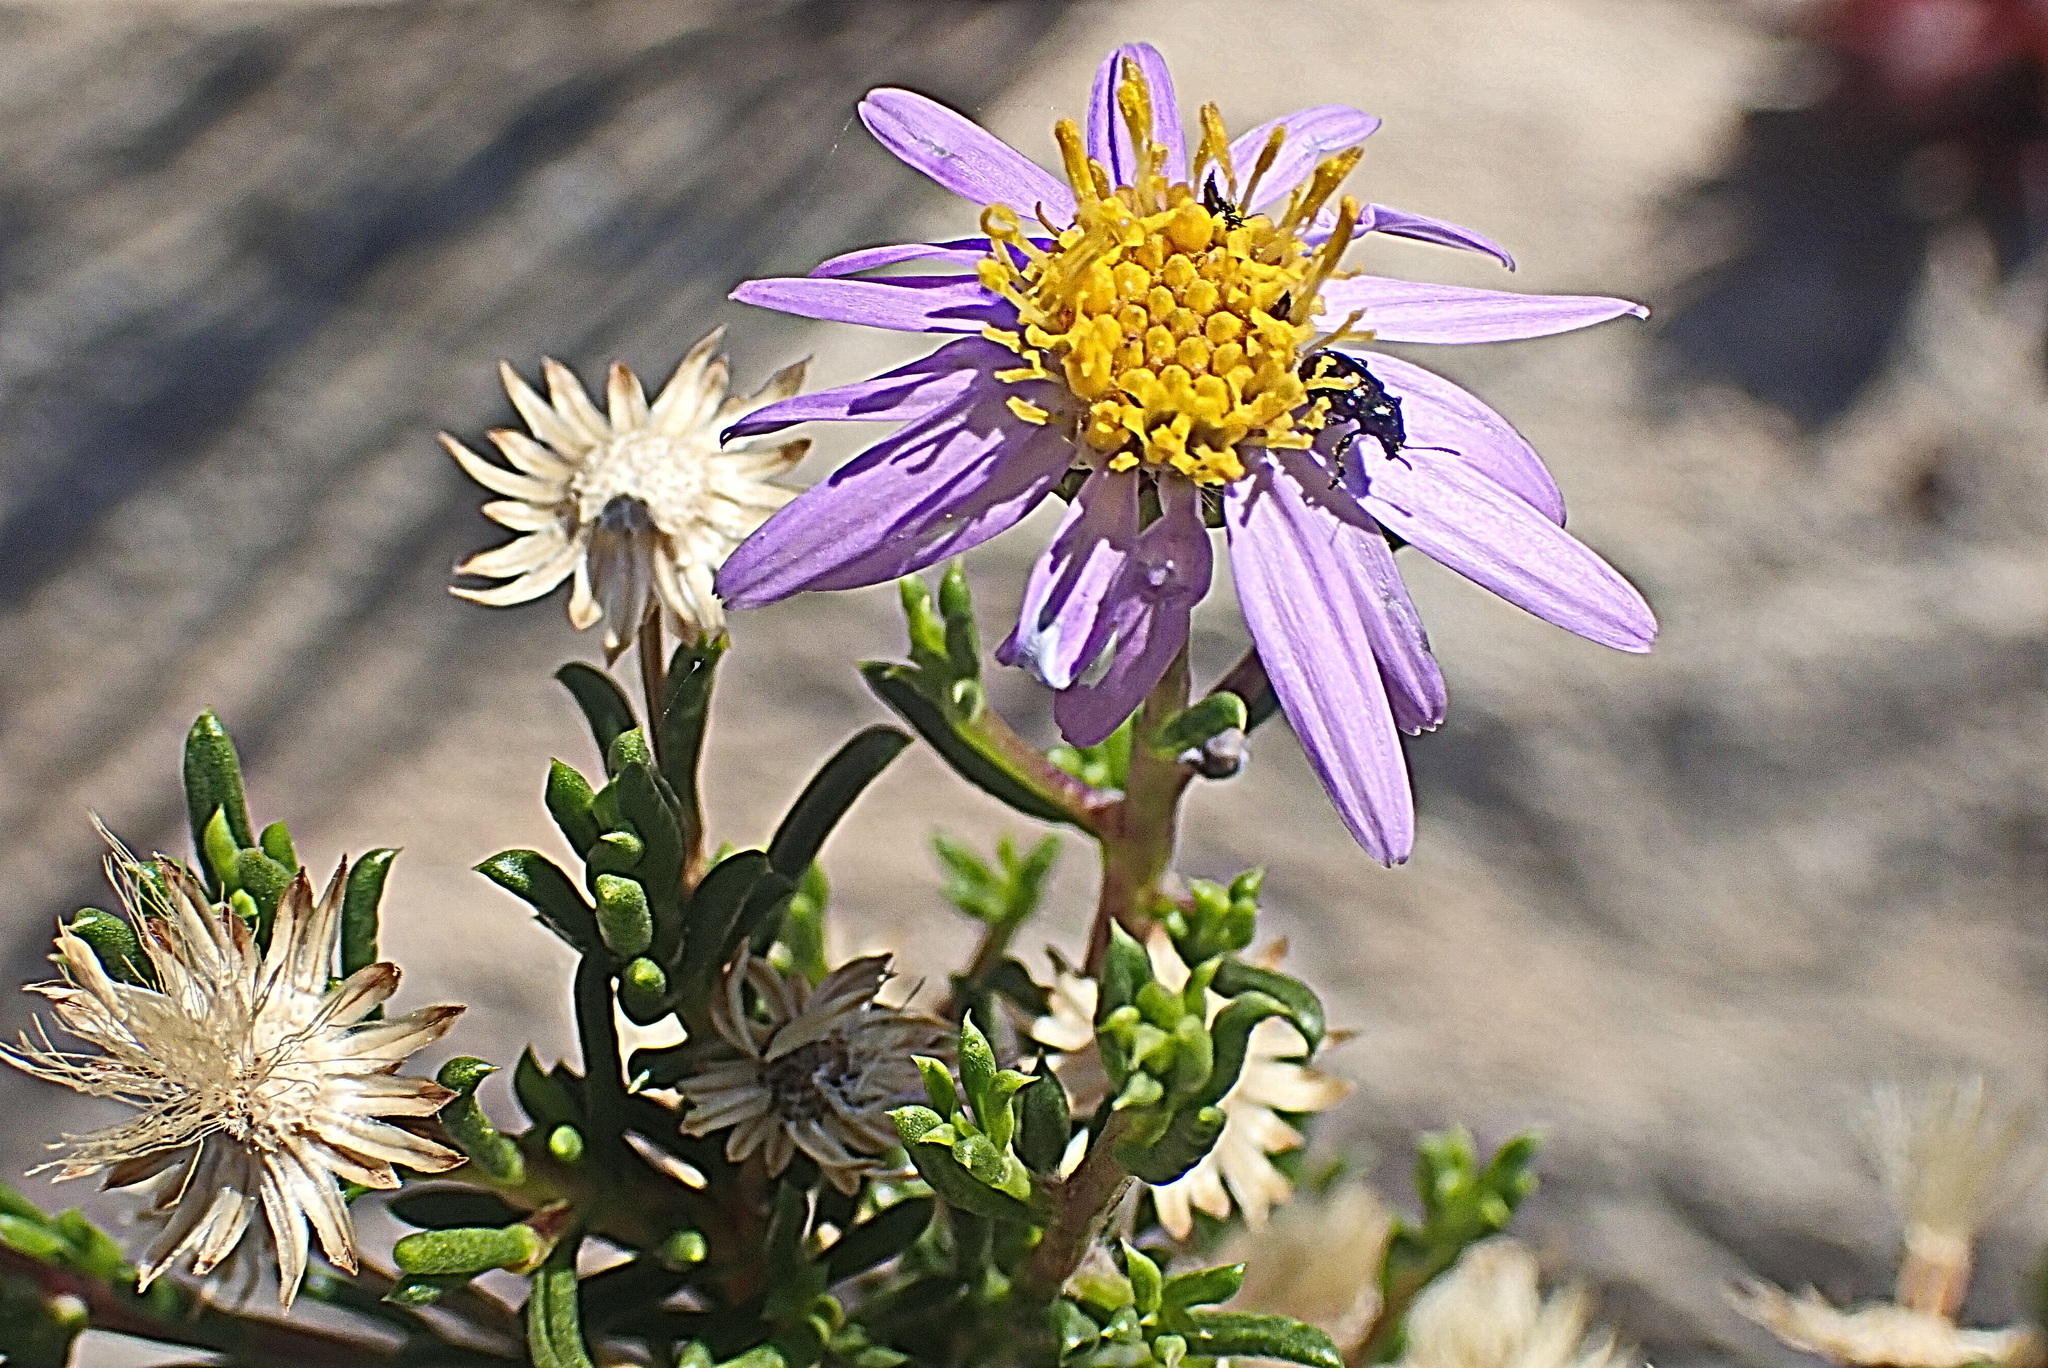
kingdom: Plantae
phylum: Tracheophyta
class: Magnoliopsida
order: Asterales
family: Asteraceae
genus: Felicia
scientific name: Felicia filifolia
